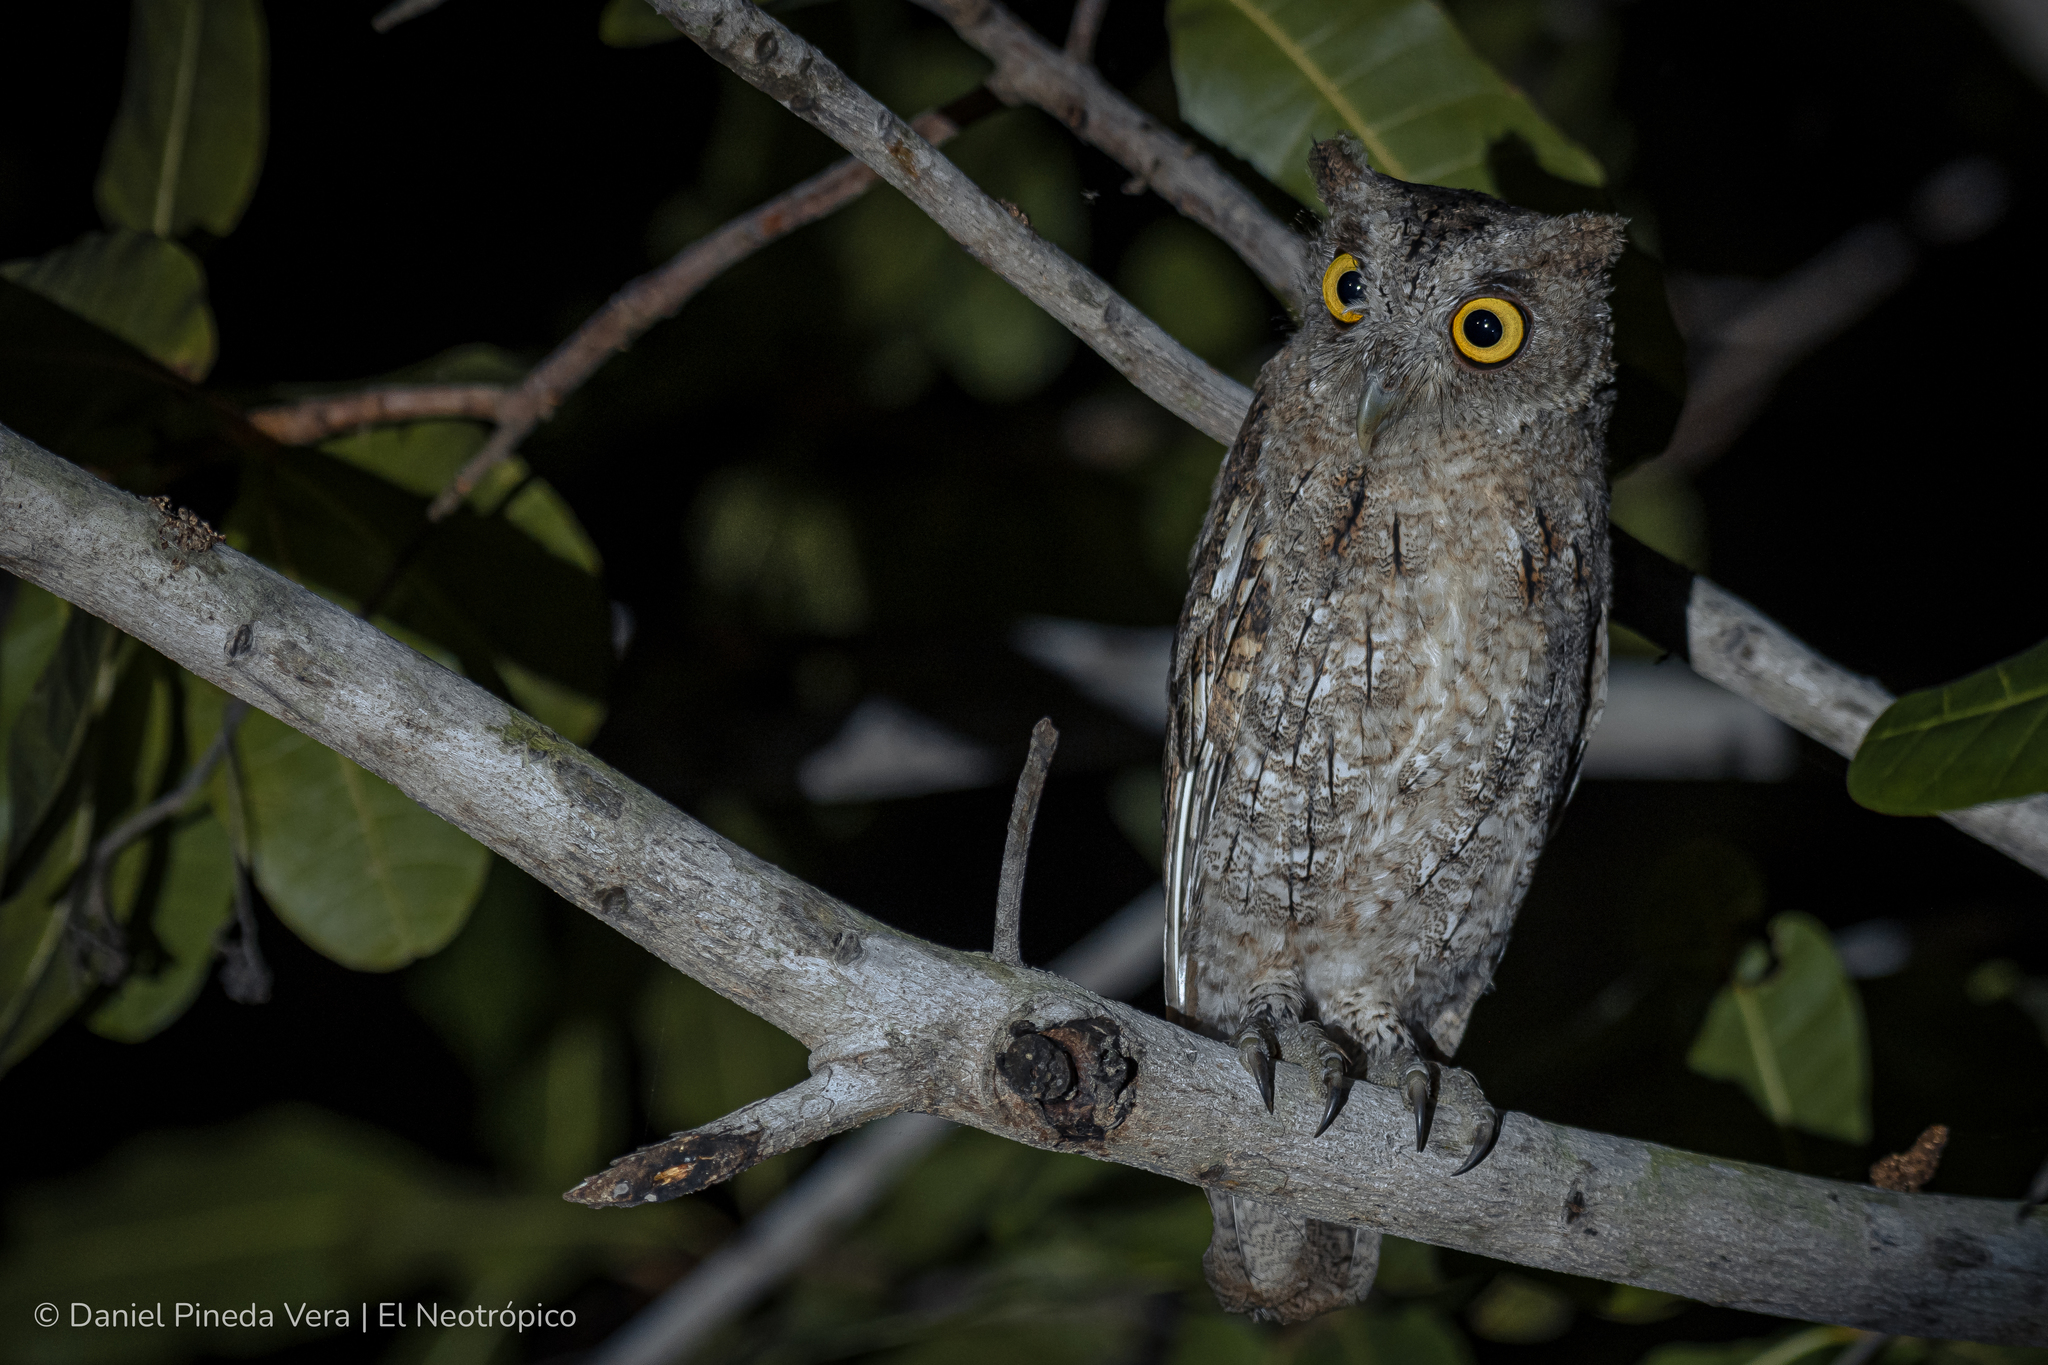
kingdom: Animalia
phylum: Chordata
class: Aves
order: Strigiformes
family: Strigidae
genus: Megascops
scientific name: Megascops cooperi
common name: Pacific screech-owl
